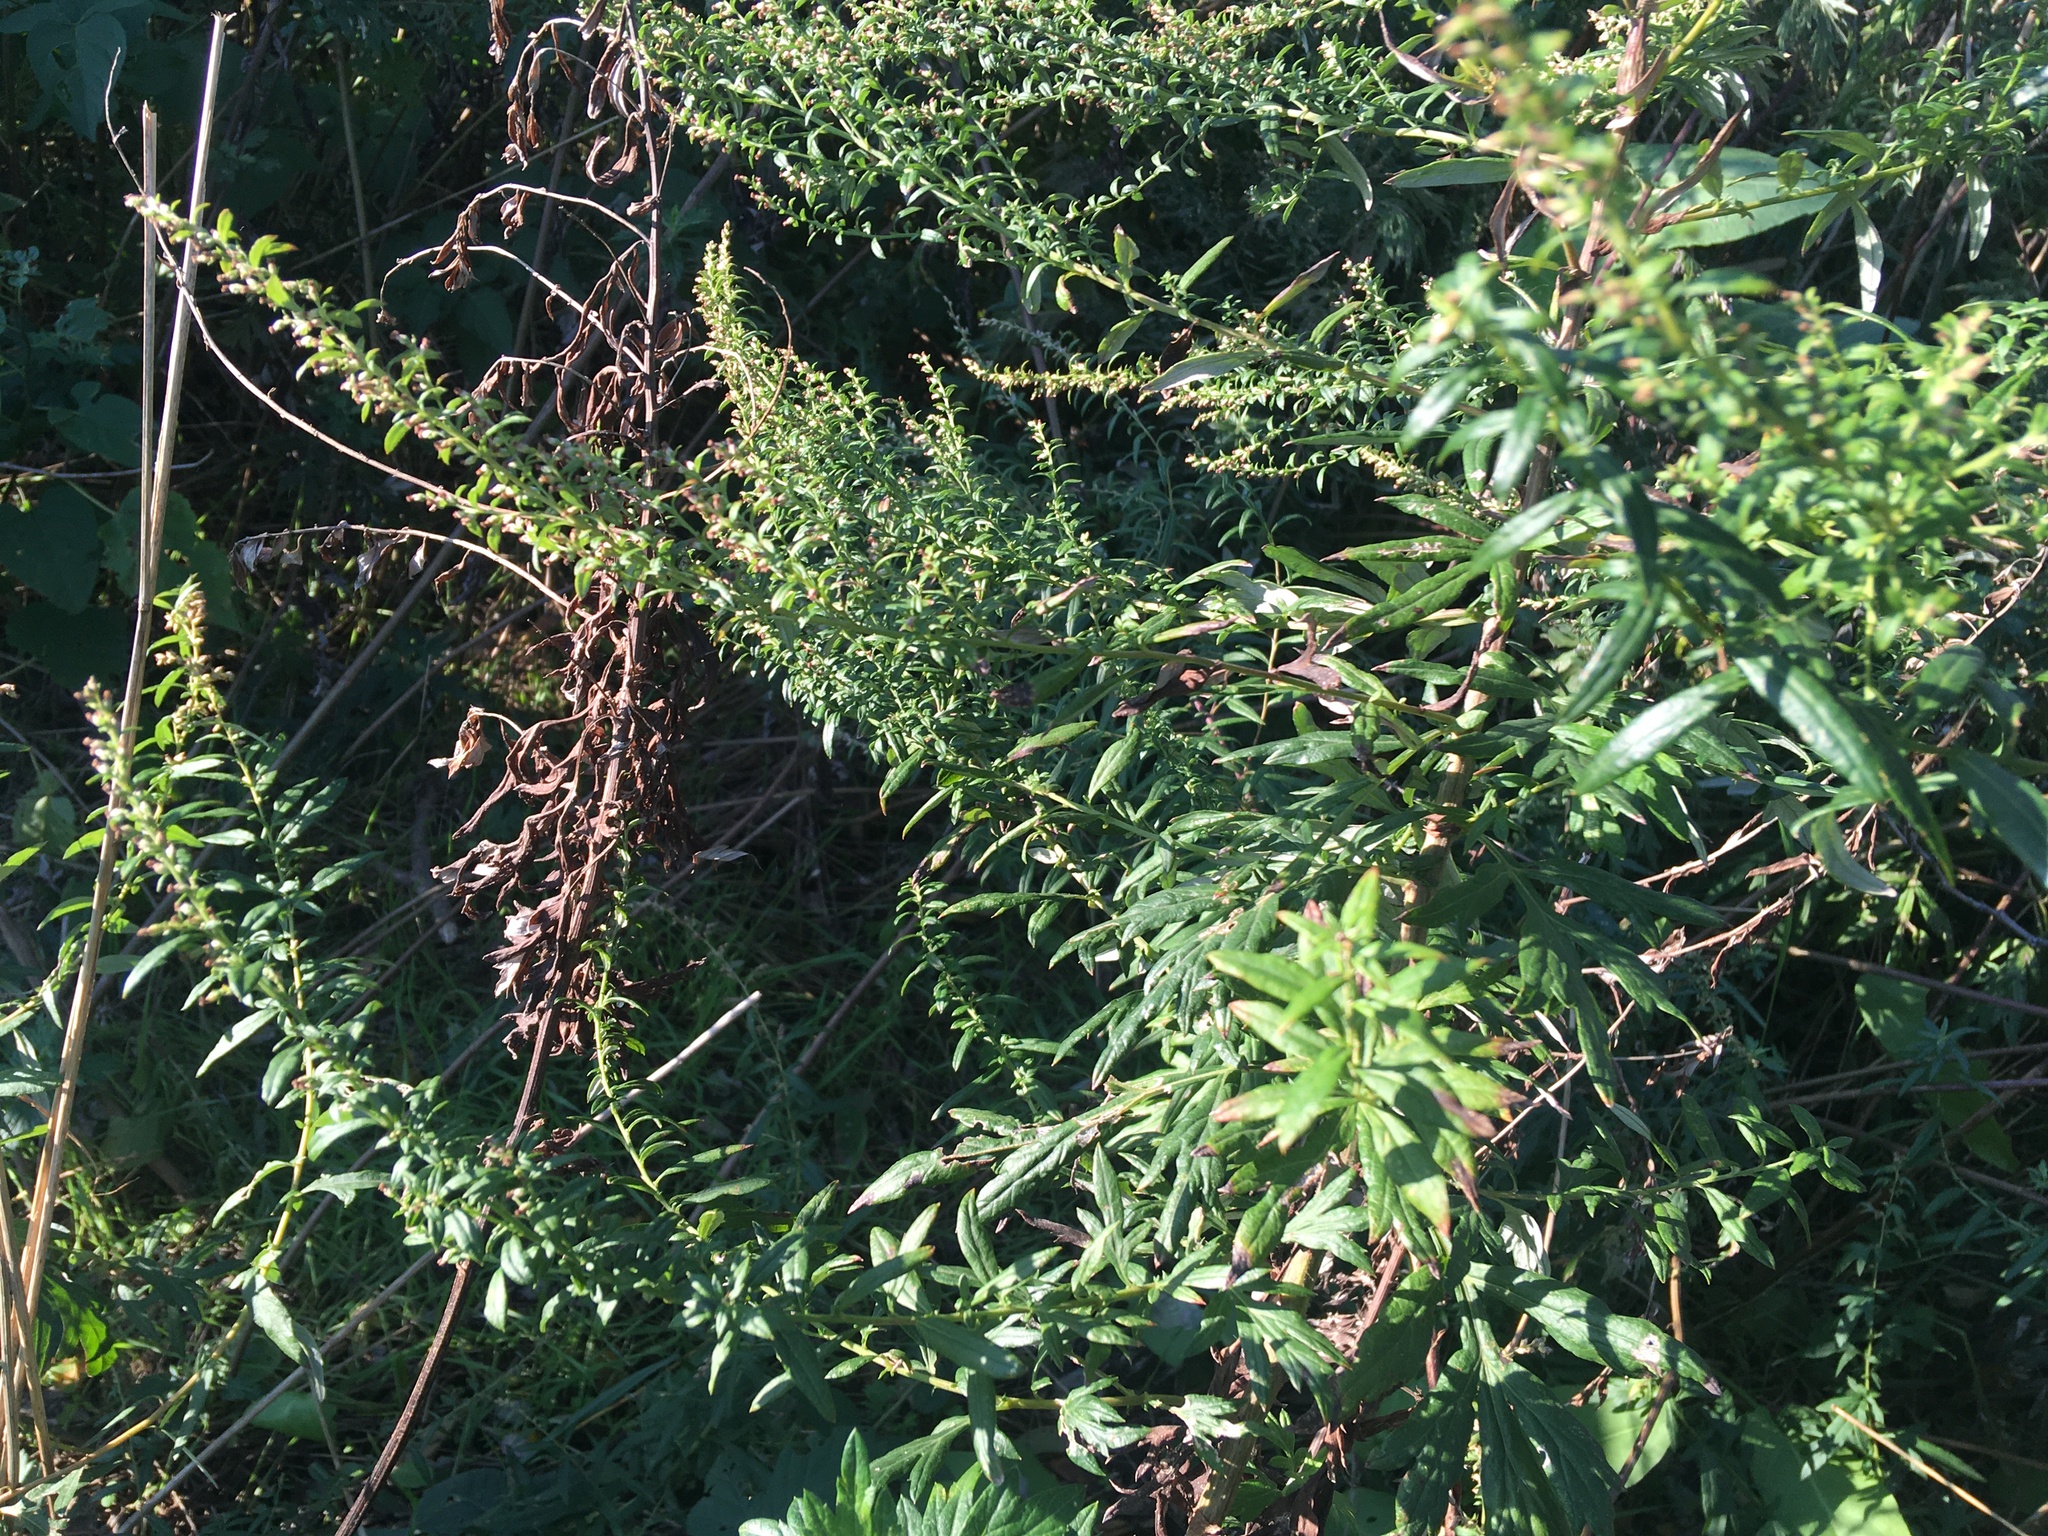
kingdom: Plantae
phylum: Tracheophyta
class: Magnoliopsida
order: Asterales
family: Asteraceae
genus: Artemisia
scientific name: Artemisia vulgaris
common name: Mugwort
